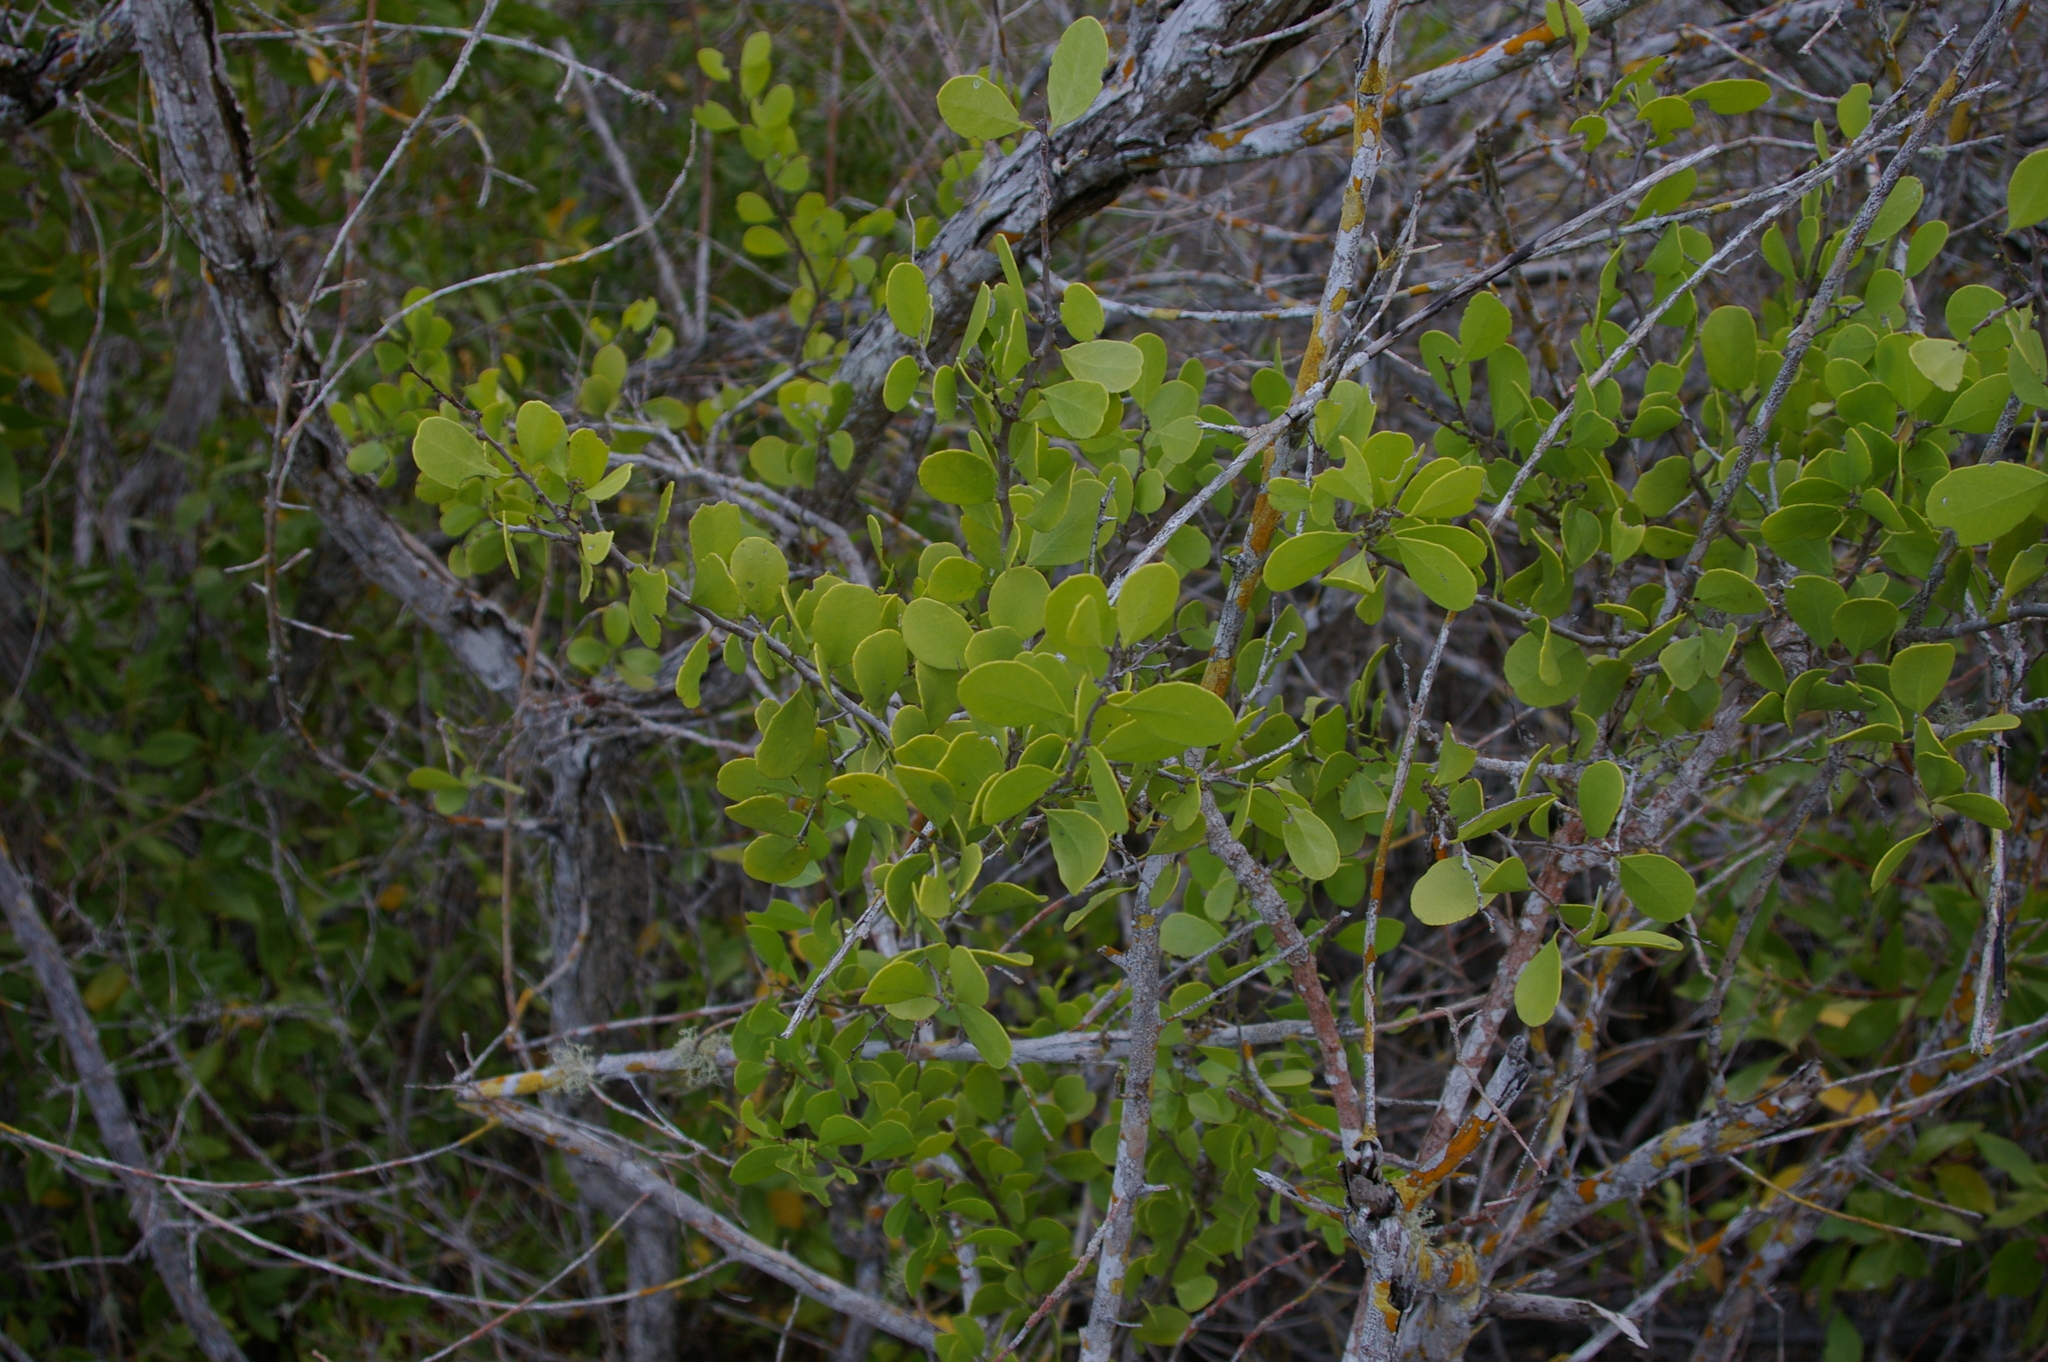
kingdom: Plantae
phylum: Tracheophyta
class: Magnoliopsida
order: Celastrales
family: Celastraceae
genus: Tricerma
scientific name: Tricerma octogonum
